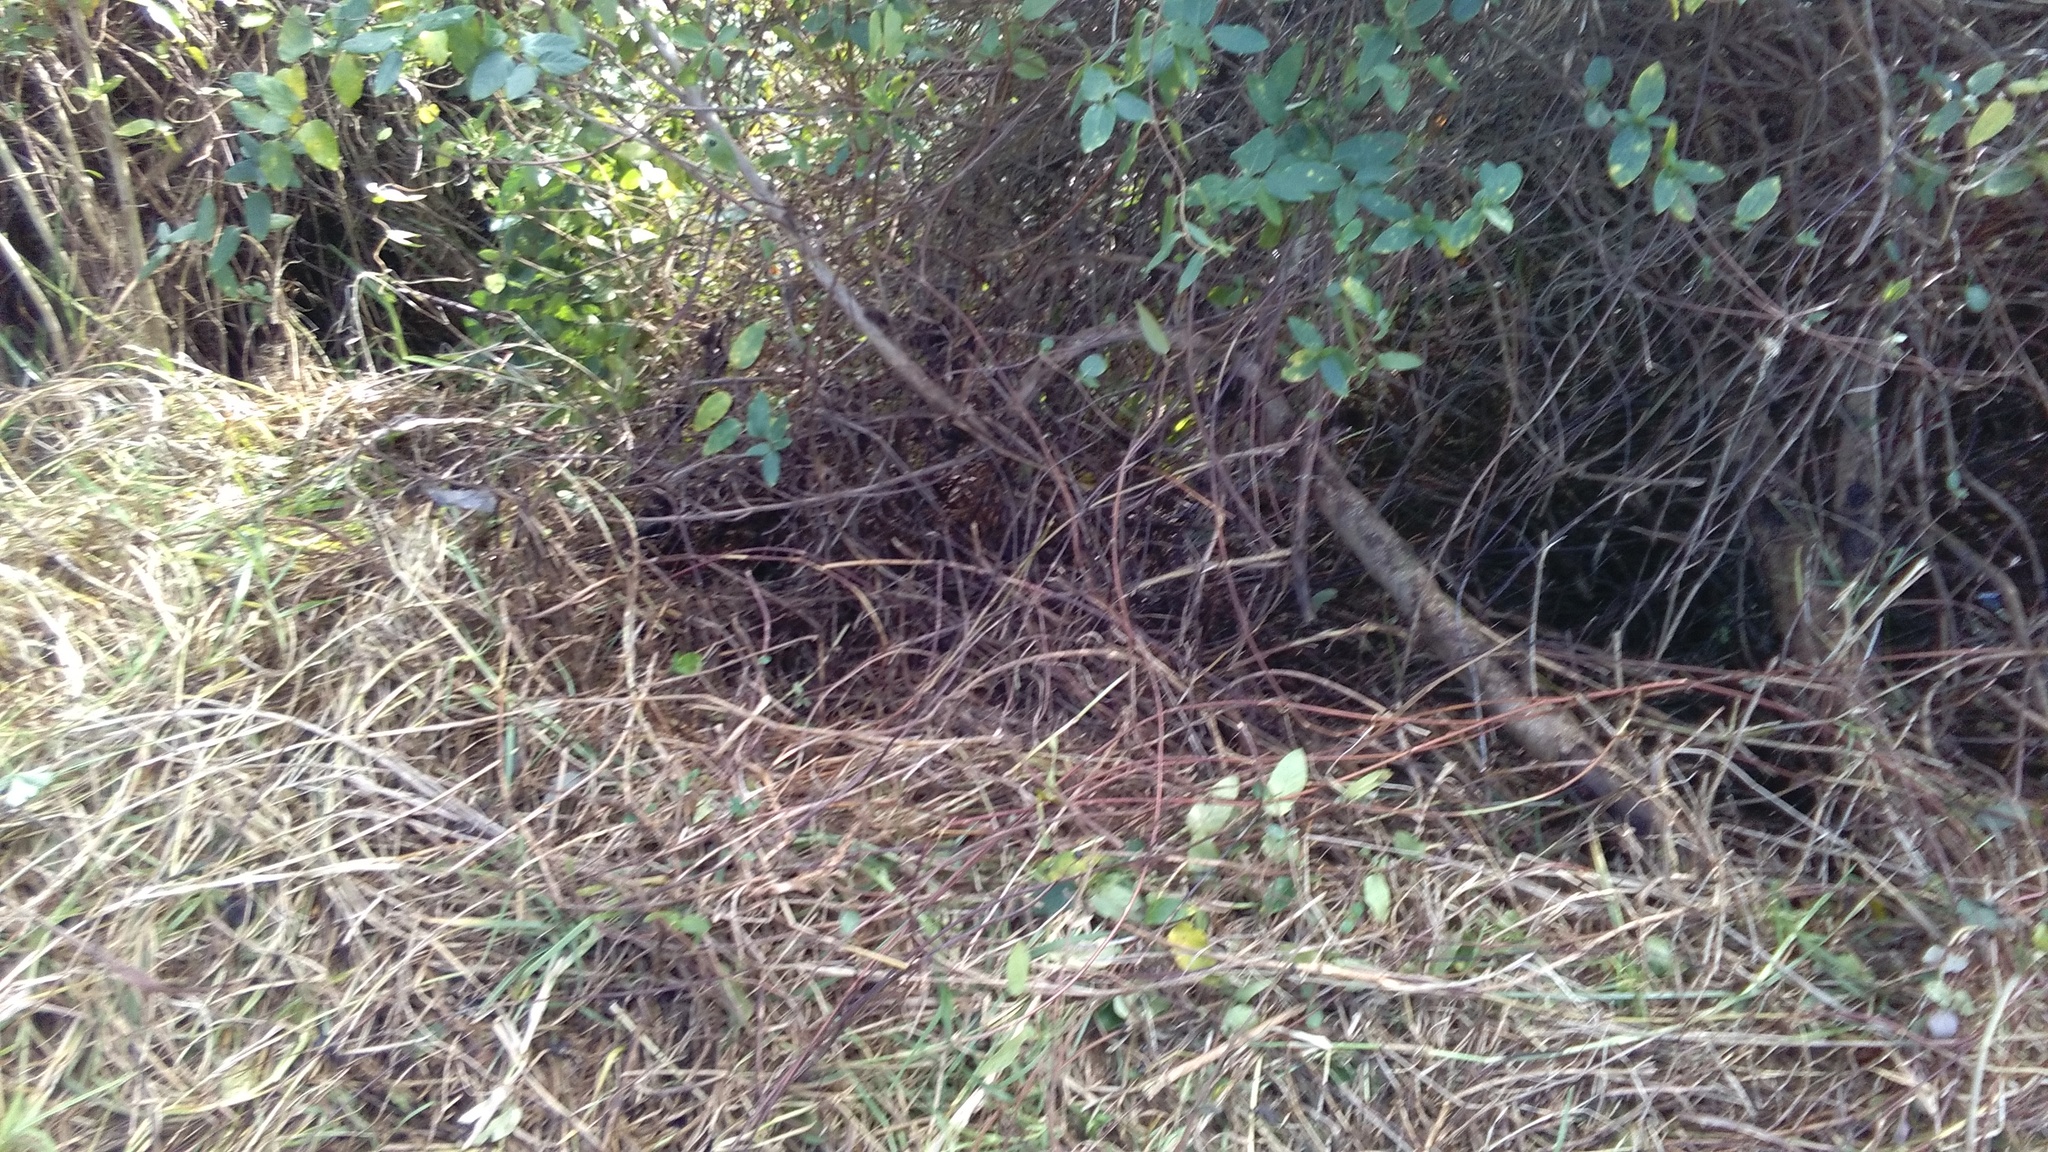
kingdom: Plantae
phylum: Tracheophyta
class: Liliopsida
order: Poales
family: Poaceae
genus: Cenchrus
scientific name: Cenchrus clandestinus
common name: Kikuyugrass
